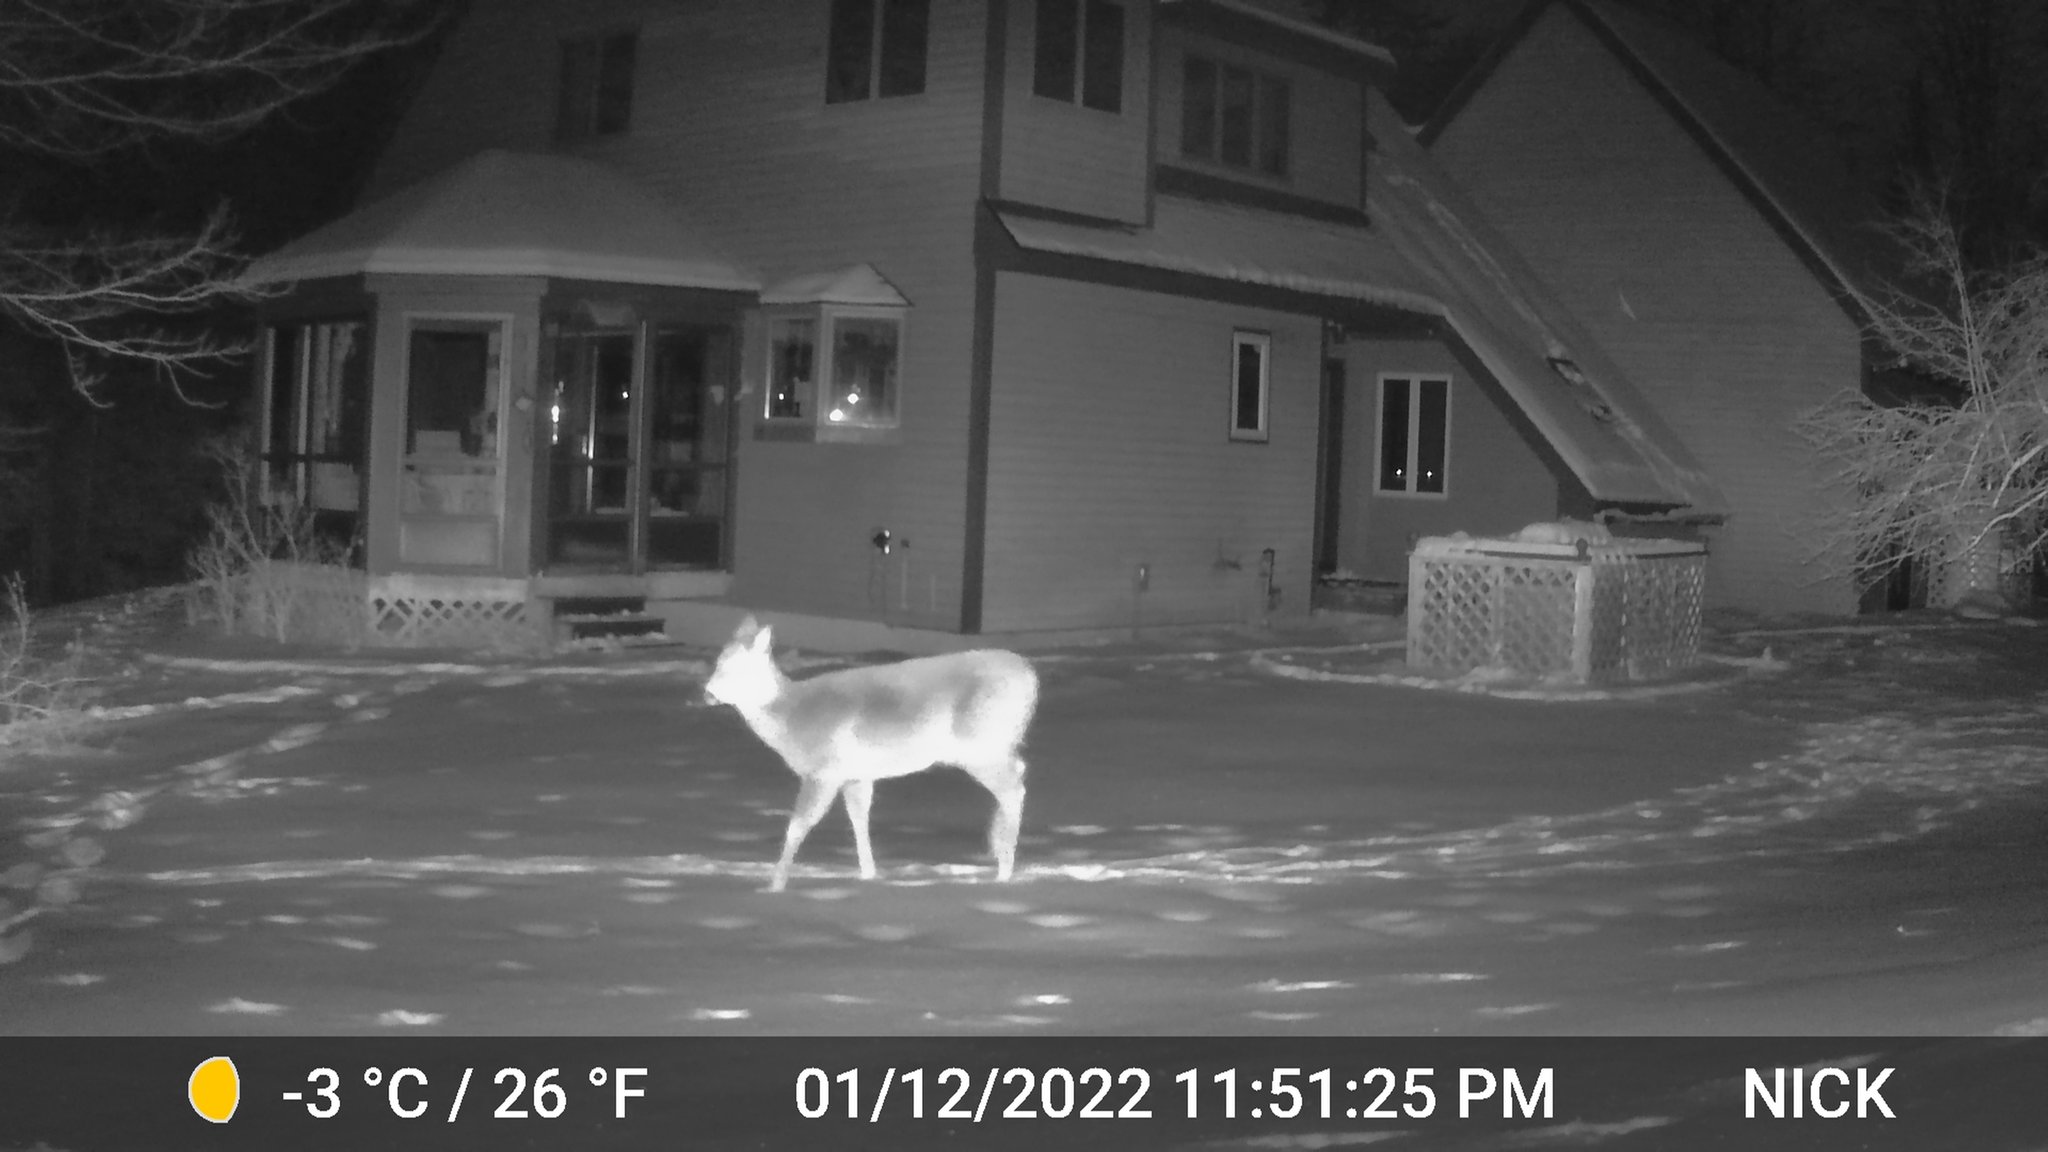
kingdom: Animalia
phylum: Chordata
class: Mammalia
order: Artiodactyla
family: Cervidae
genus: Odocoileus
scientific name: Odocoileus virginianus
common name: White-tailed deer
